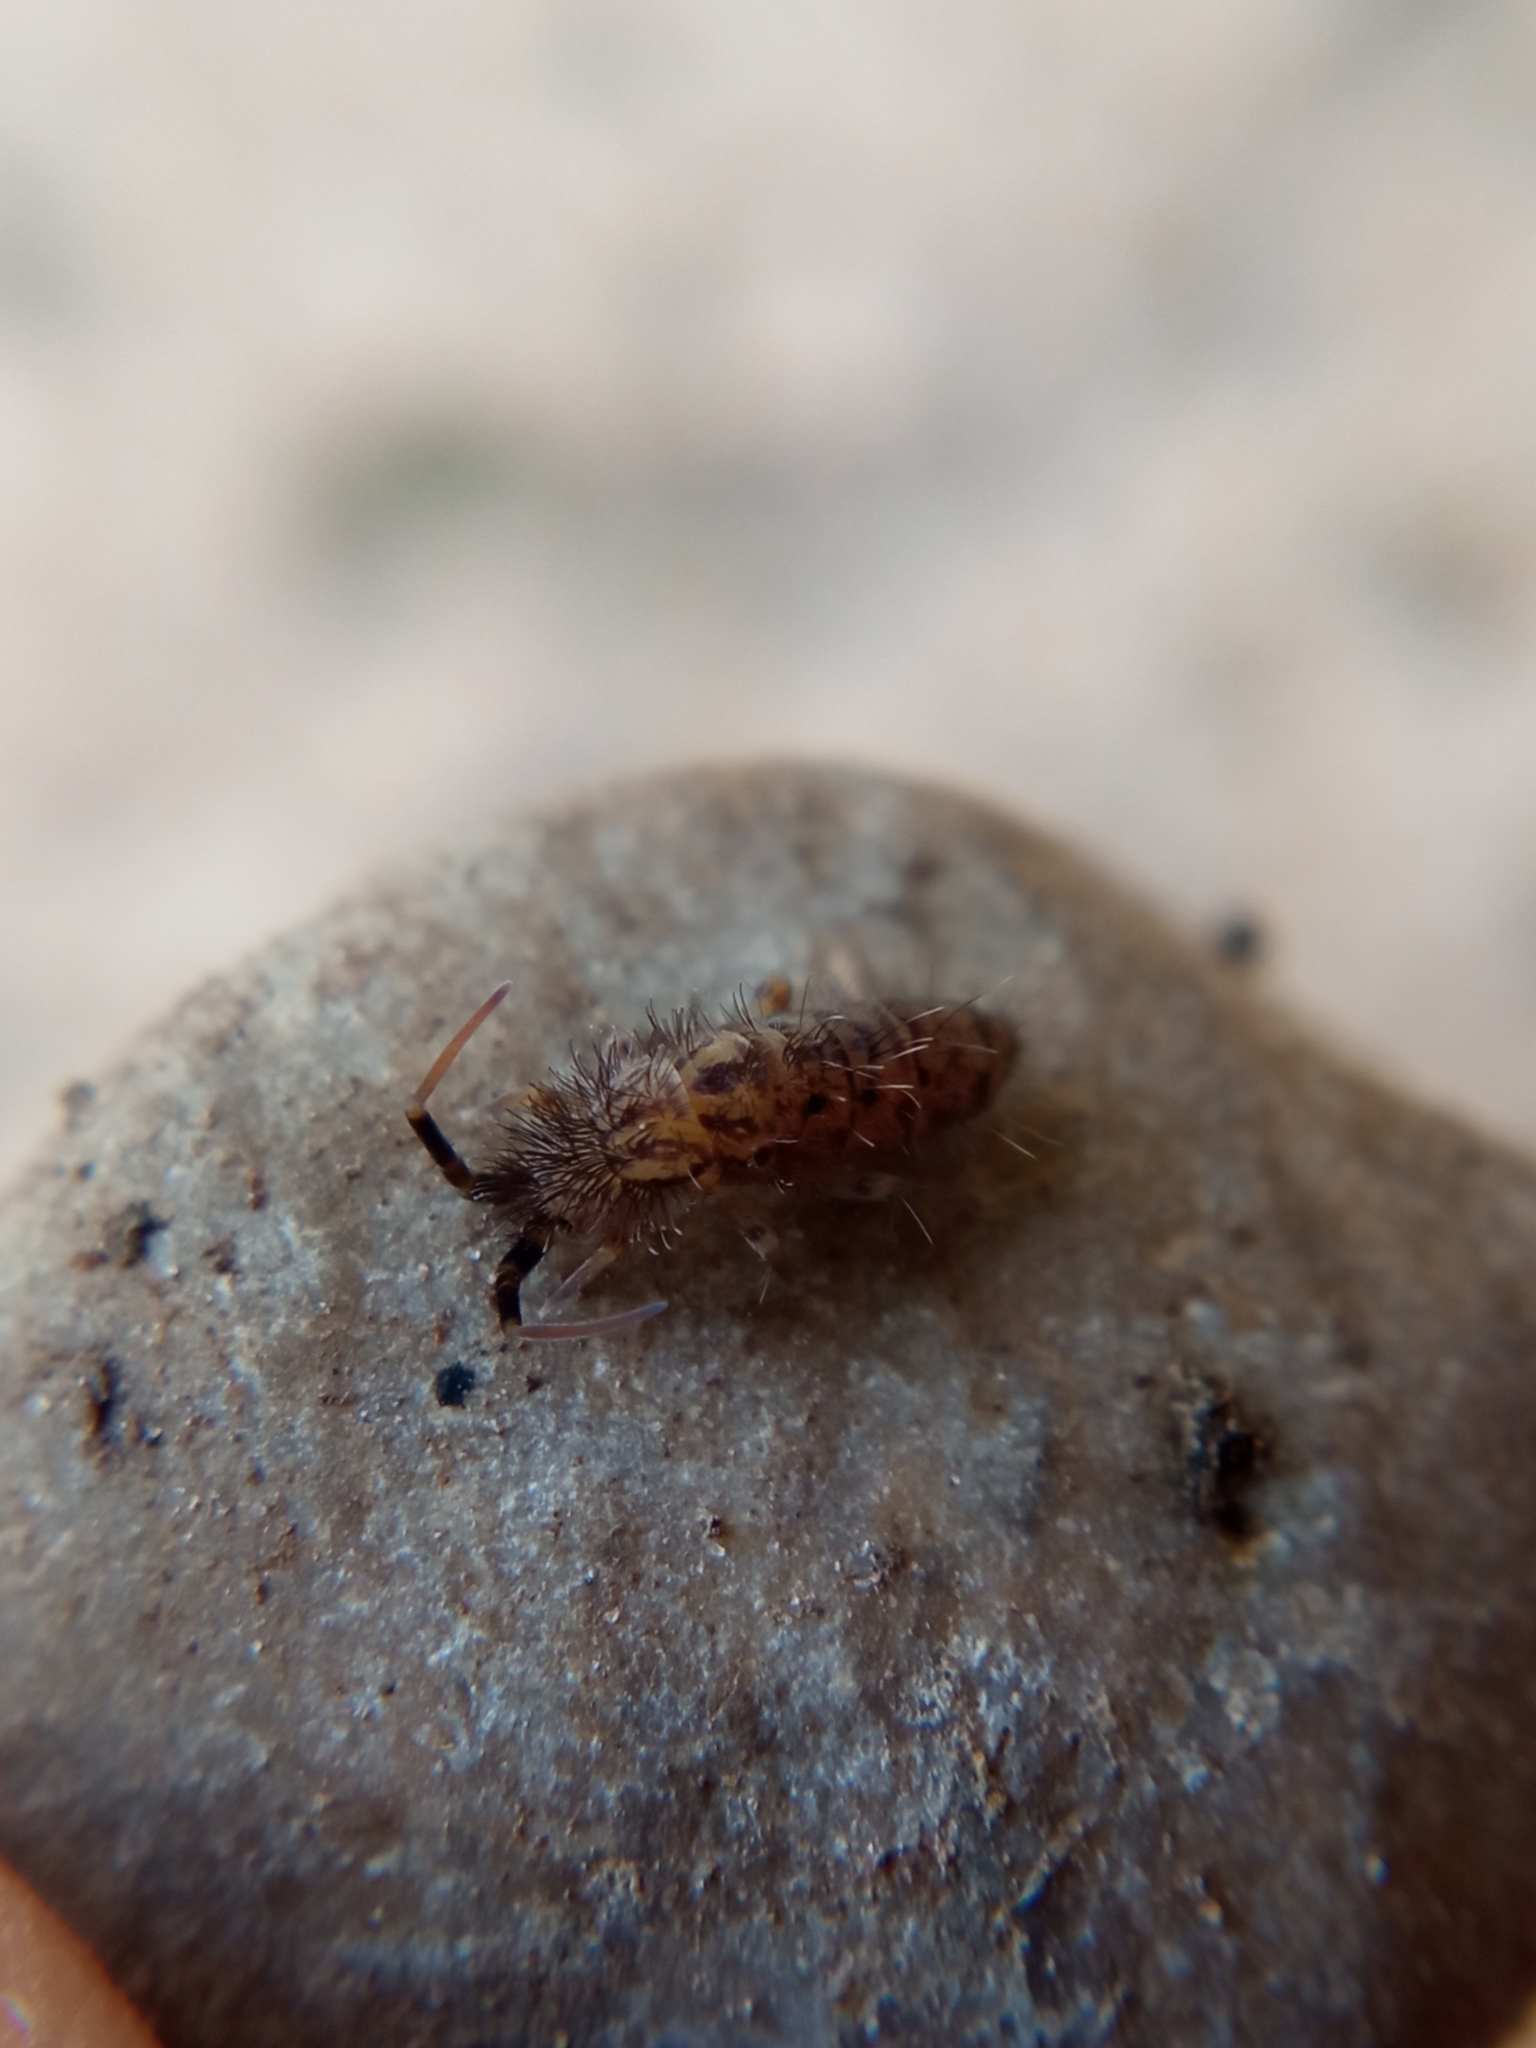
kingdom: Animalia
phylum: Arthropoda
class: Collembola
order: Entomobryomorpha
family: Orchesellidae
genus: Orchesella
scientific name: Orchesella villosa
